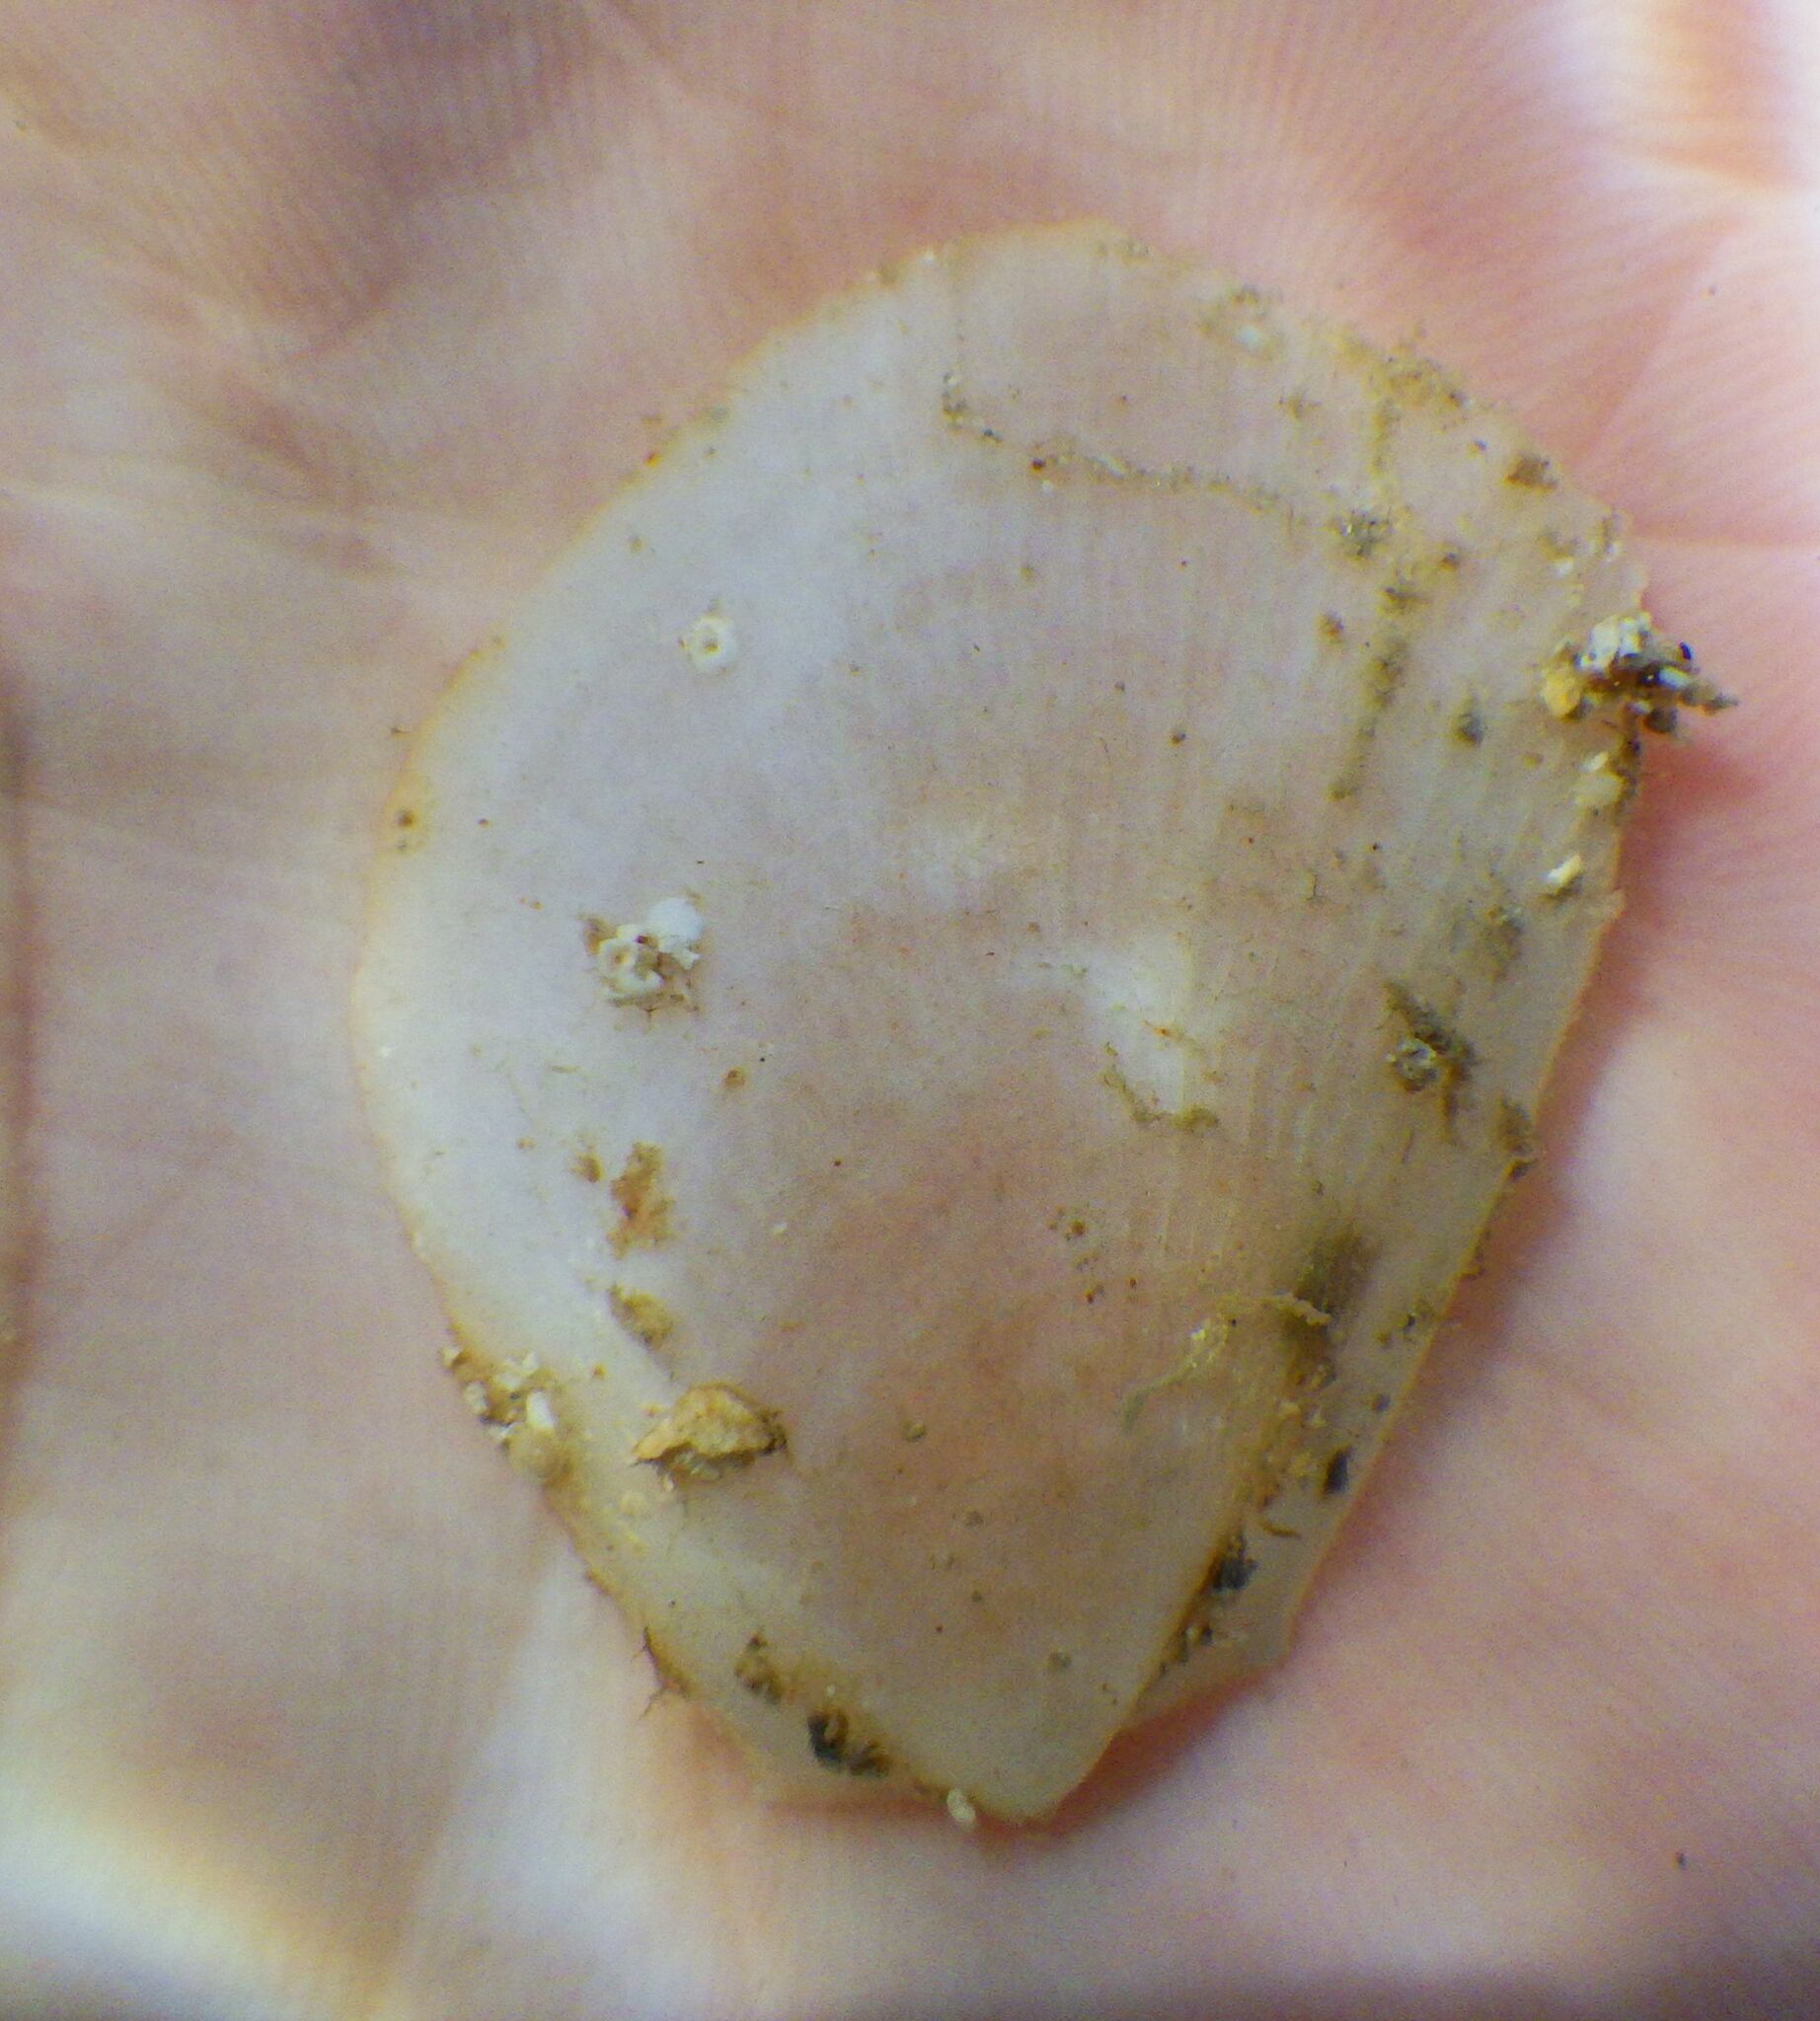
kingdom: Animalia
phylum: Mollusca
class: Bivalvia
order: Limida
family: Limidae
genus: Limaria
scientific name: Limaria tuberculata
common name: File shell
